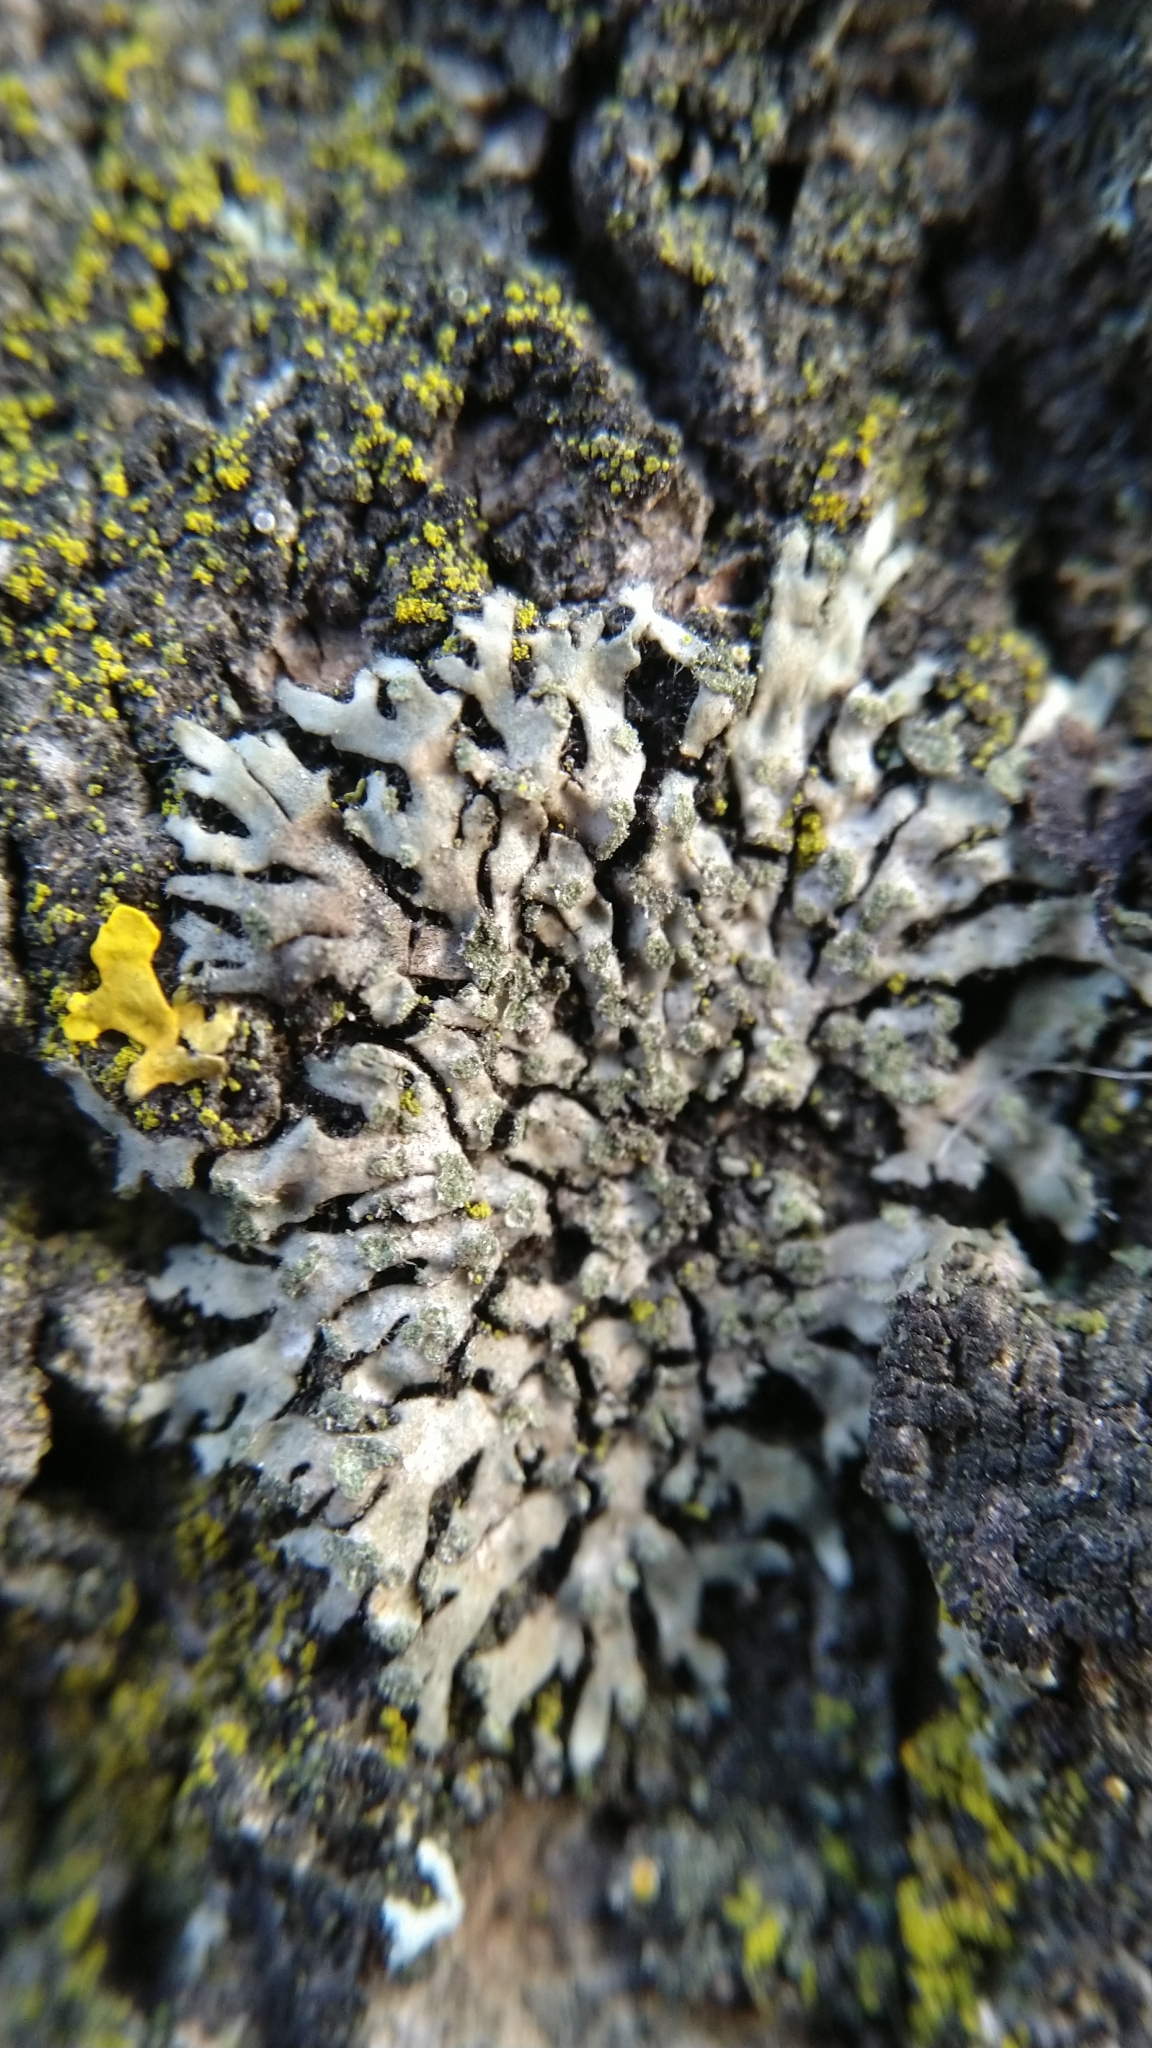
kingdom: Fungi
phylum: Ascomycota
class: Lecanoromycetes
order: Caliciales
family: Physciaceae
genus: Phaeophyscia
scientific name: Phaeophyscia orbicularis
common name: Mealy shadow lichen
